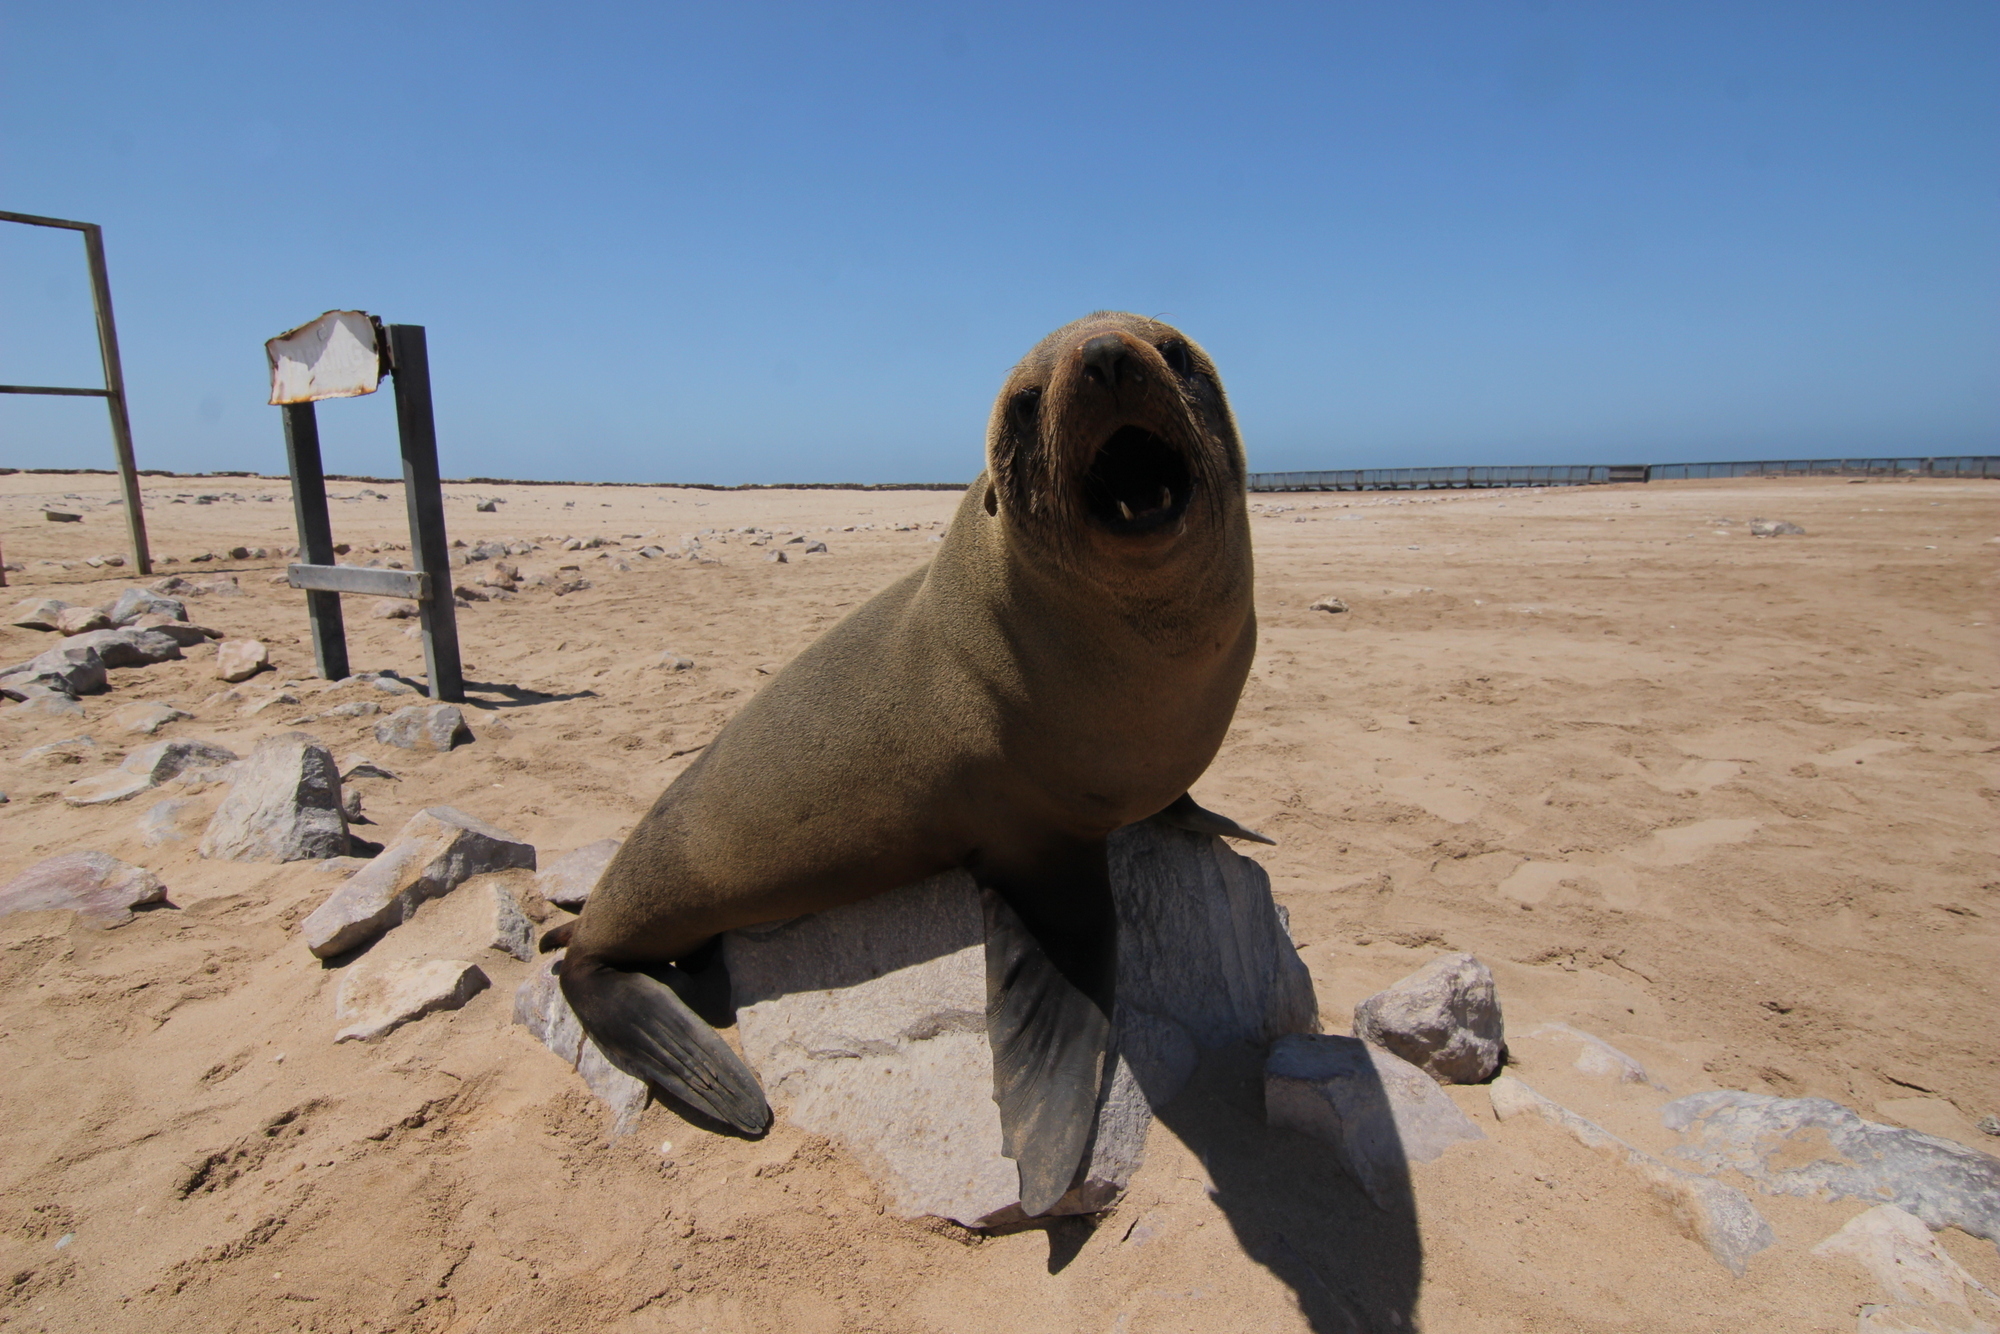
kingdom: Animalia
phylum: Chordata
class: Mammalia
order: Carnivora
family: Otariidae
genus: Arctocephalus
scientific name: Arctocephalus pusillus
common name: Brown fur seal
